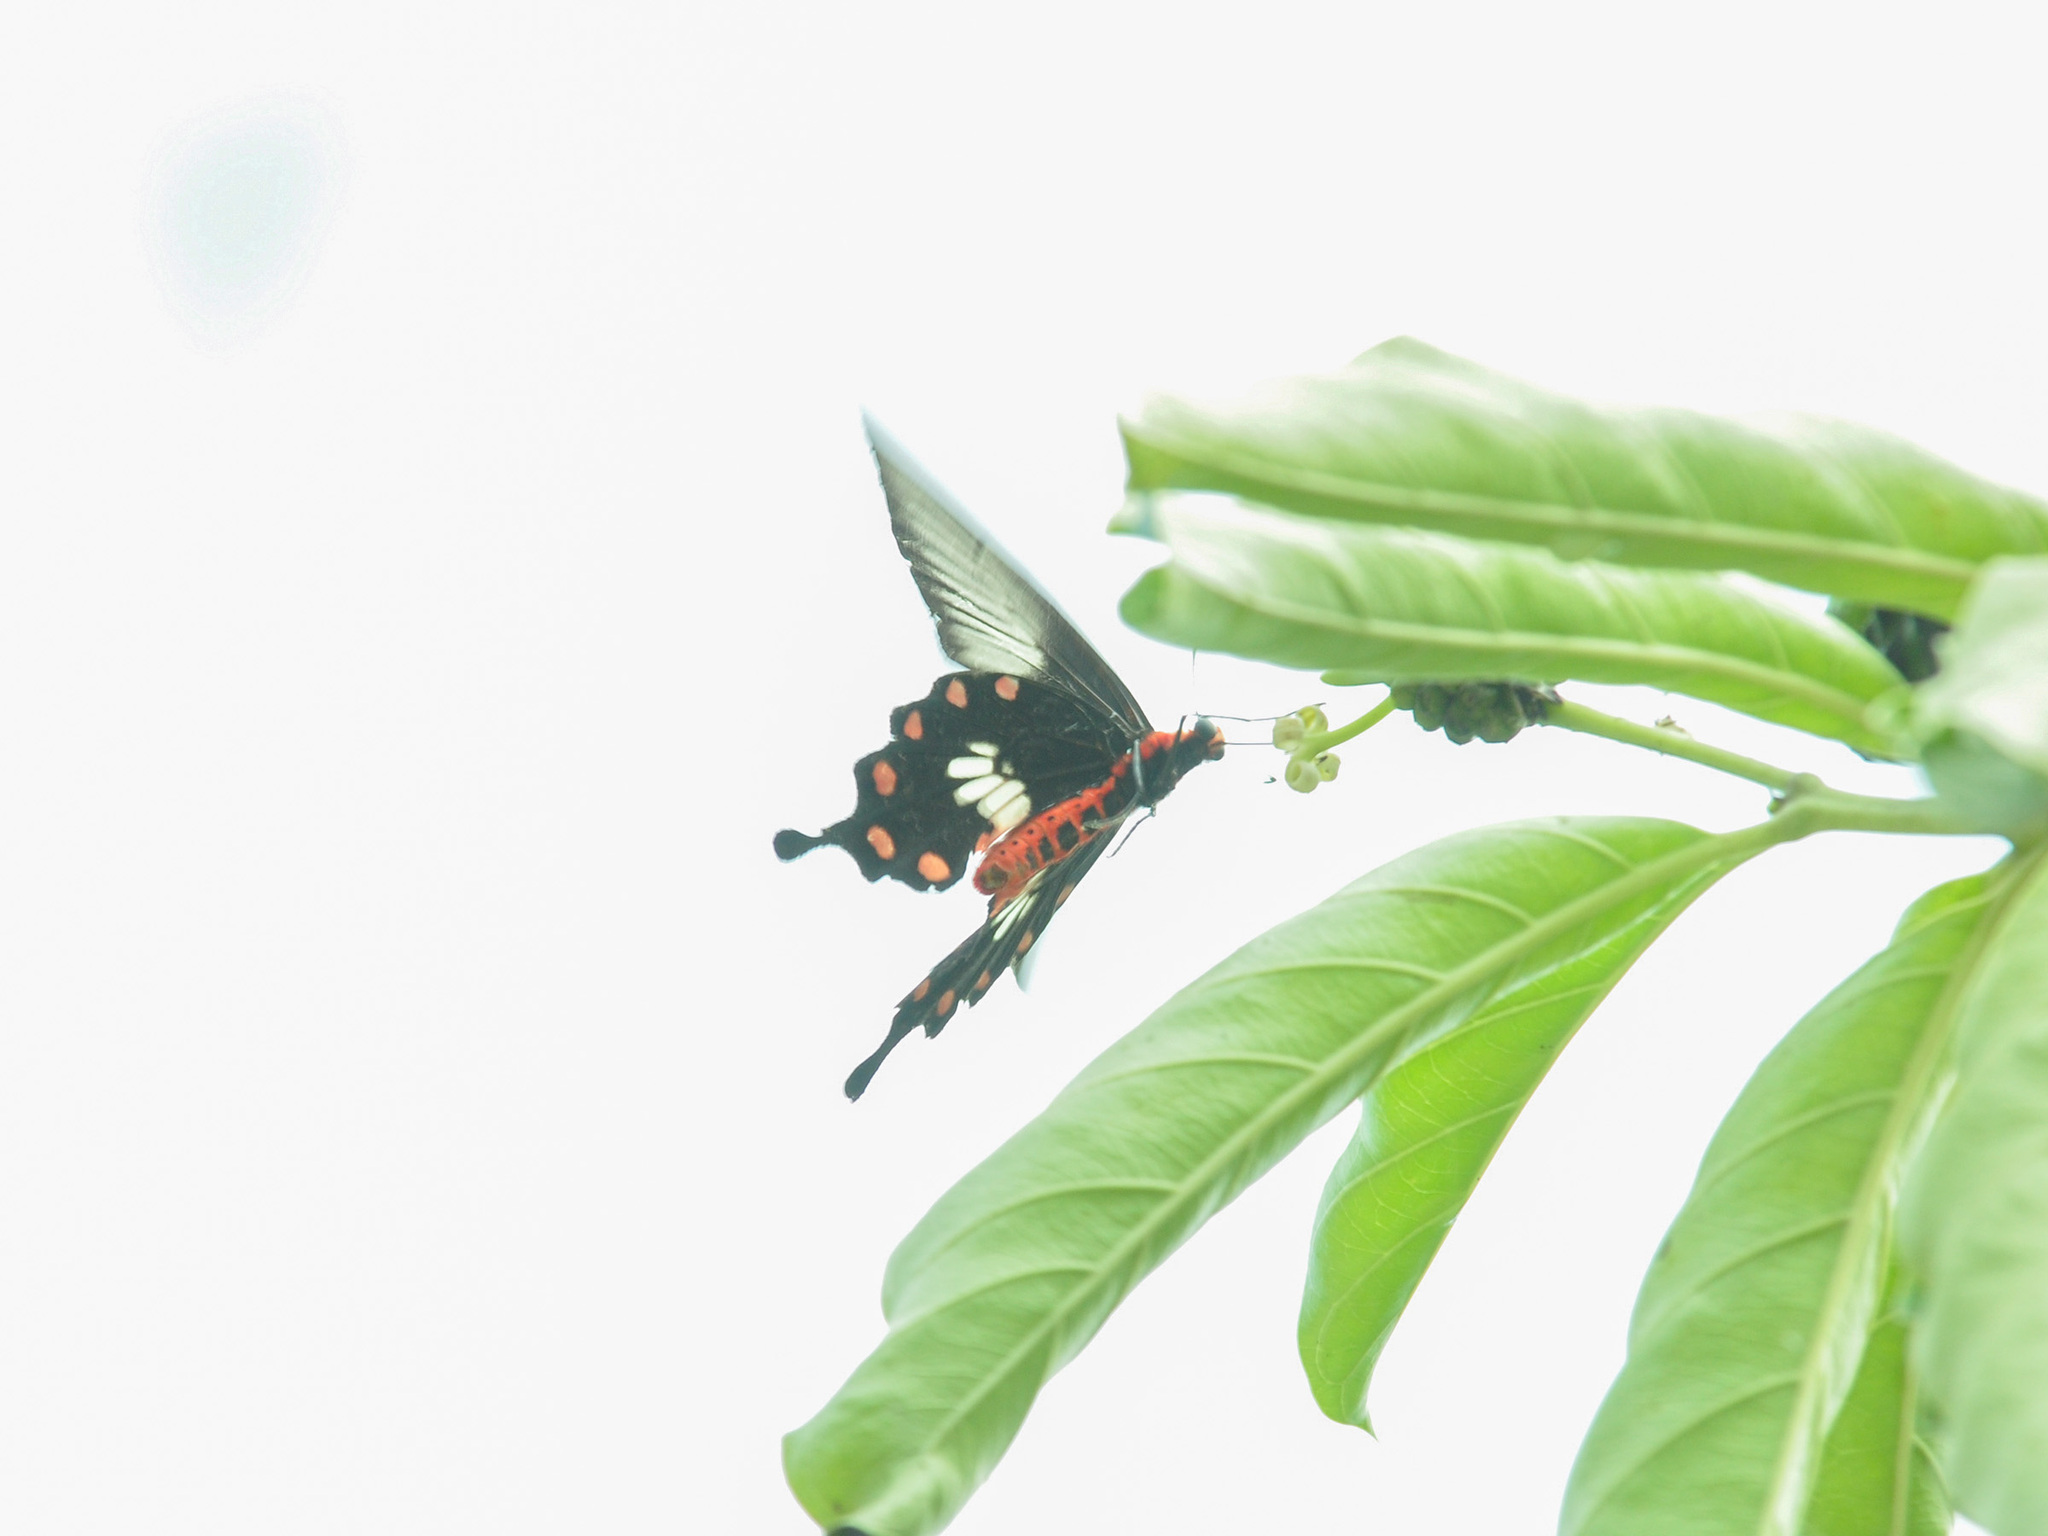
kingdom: Animalia
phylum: Arthropoda
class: Insecta
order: Lepidoptera
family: Papilionidae
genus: Pachliopta
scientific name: Pachliopta aristolochiae
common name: Common rose
